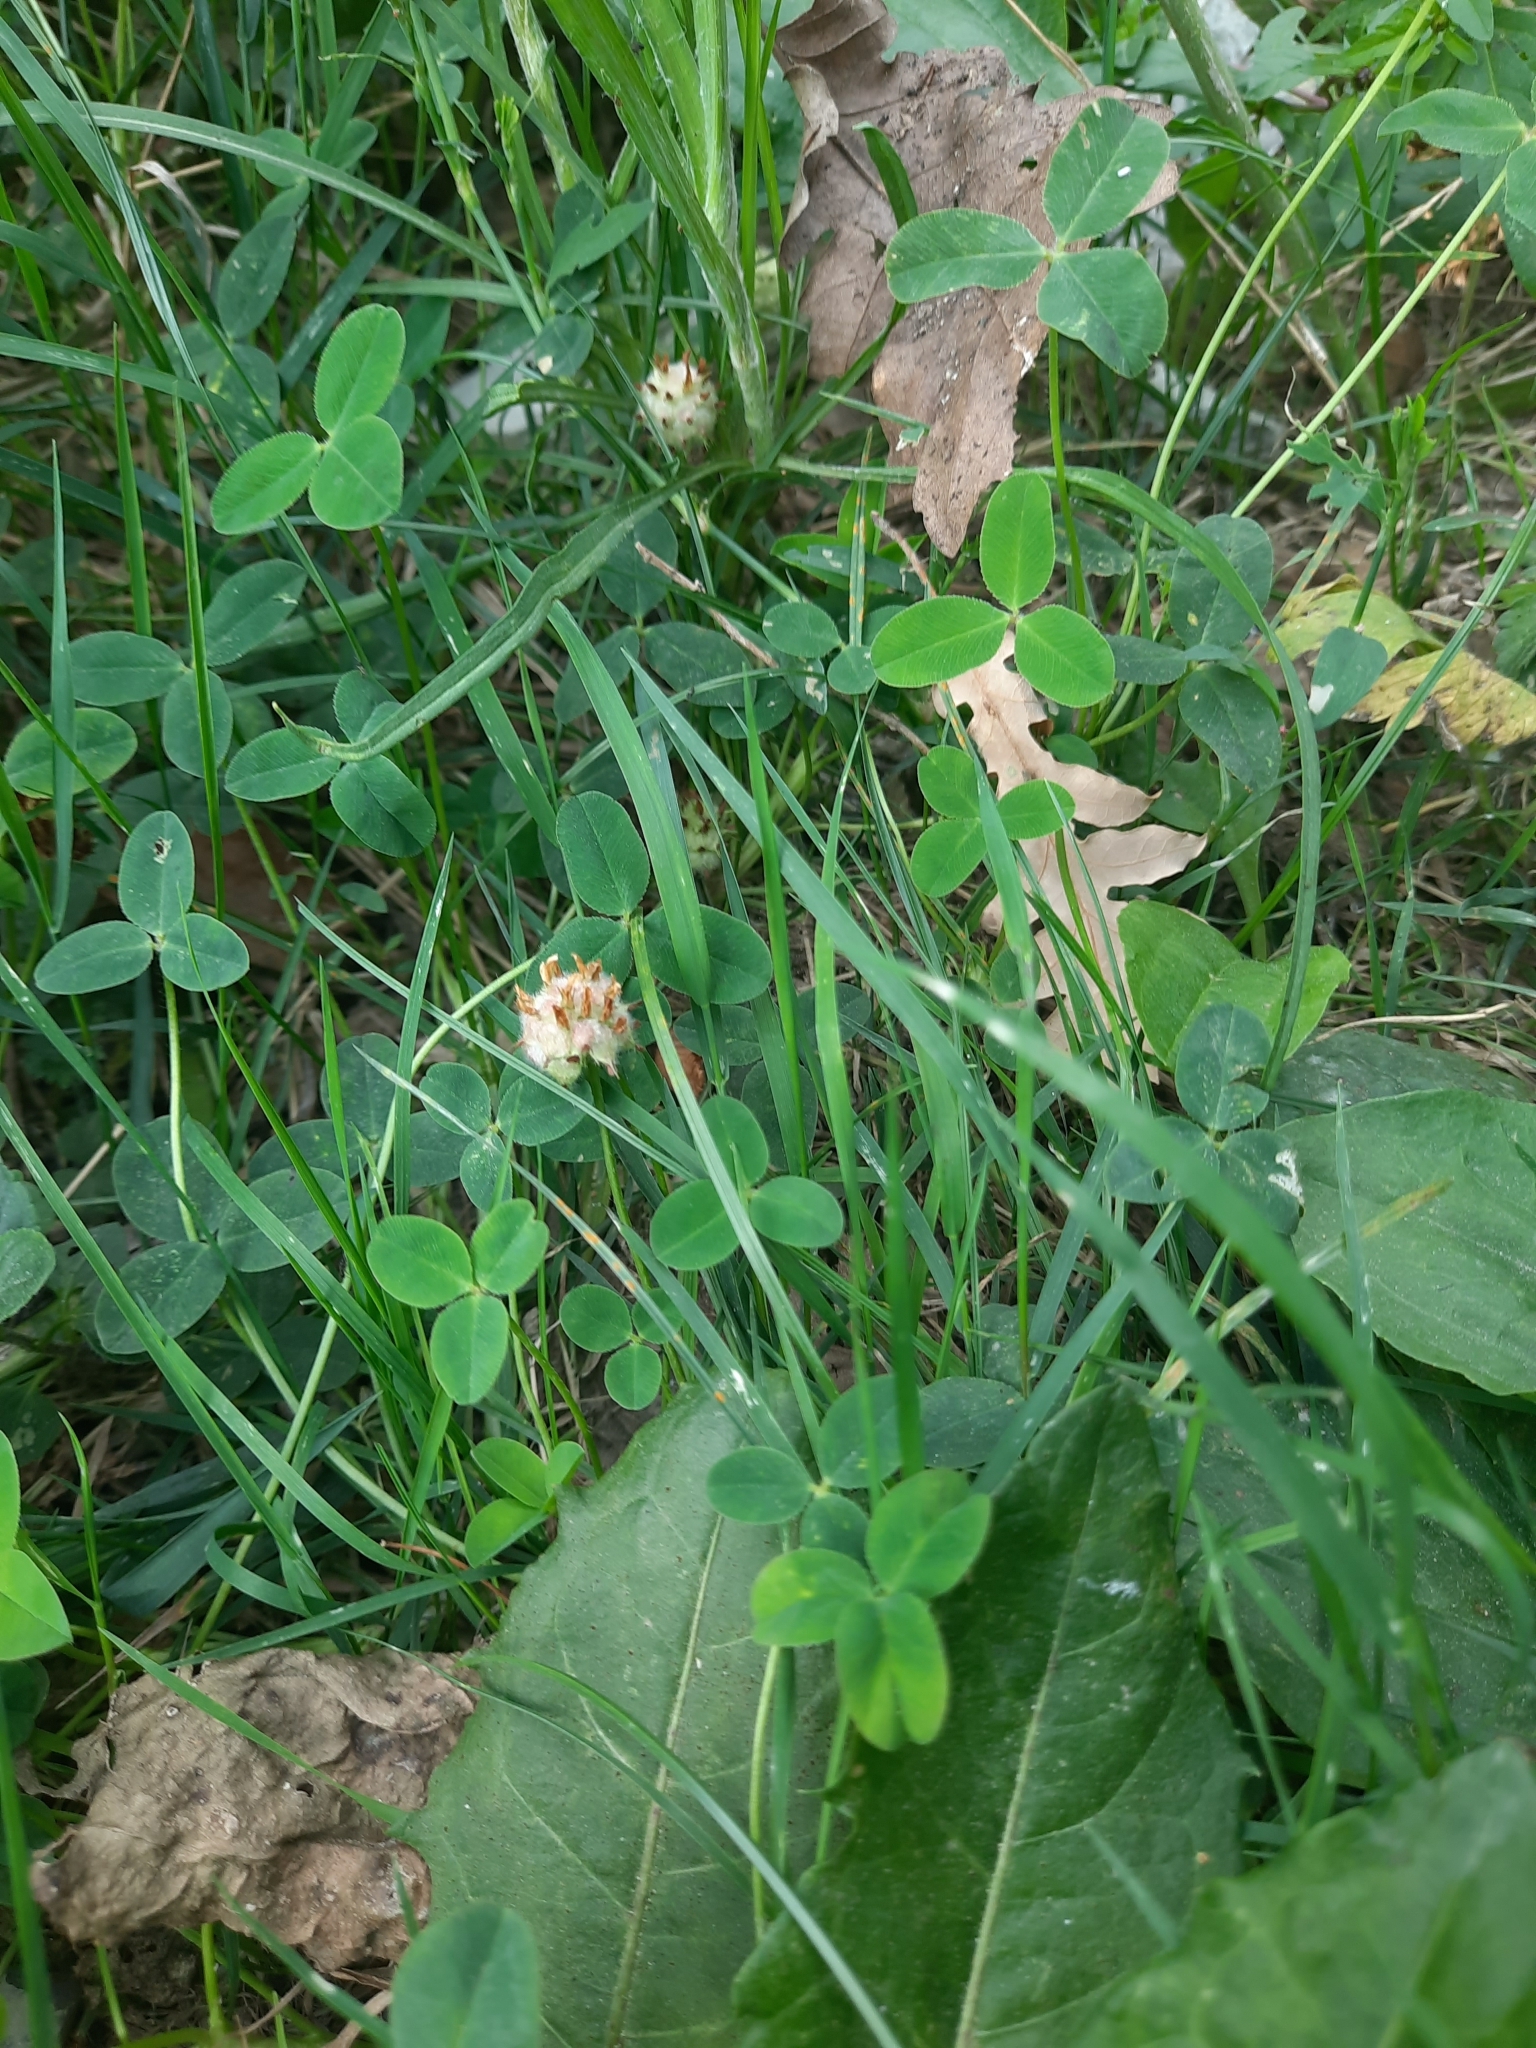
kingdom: Plantae
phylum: Tracheophyta
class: Magnoliopsida
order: Fabales
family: Fabaceae
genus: Trifolium
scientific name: Trifolium fragiferum
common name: Strawberry clover
